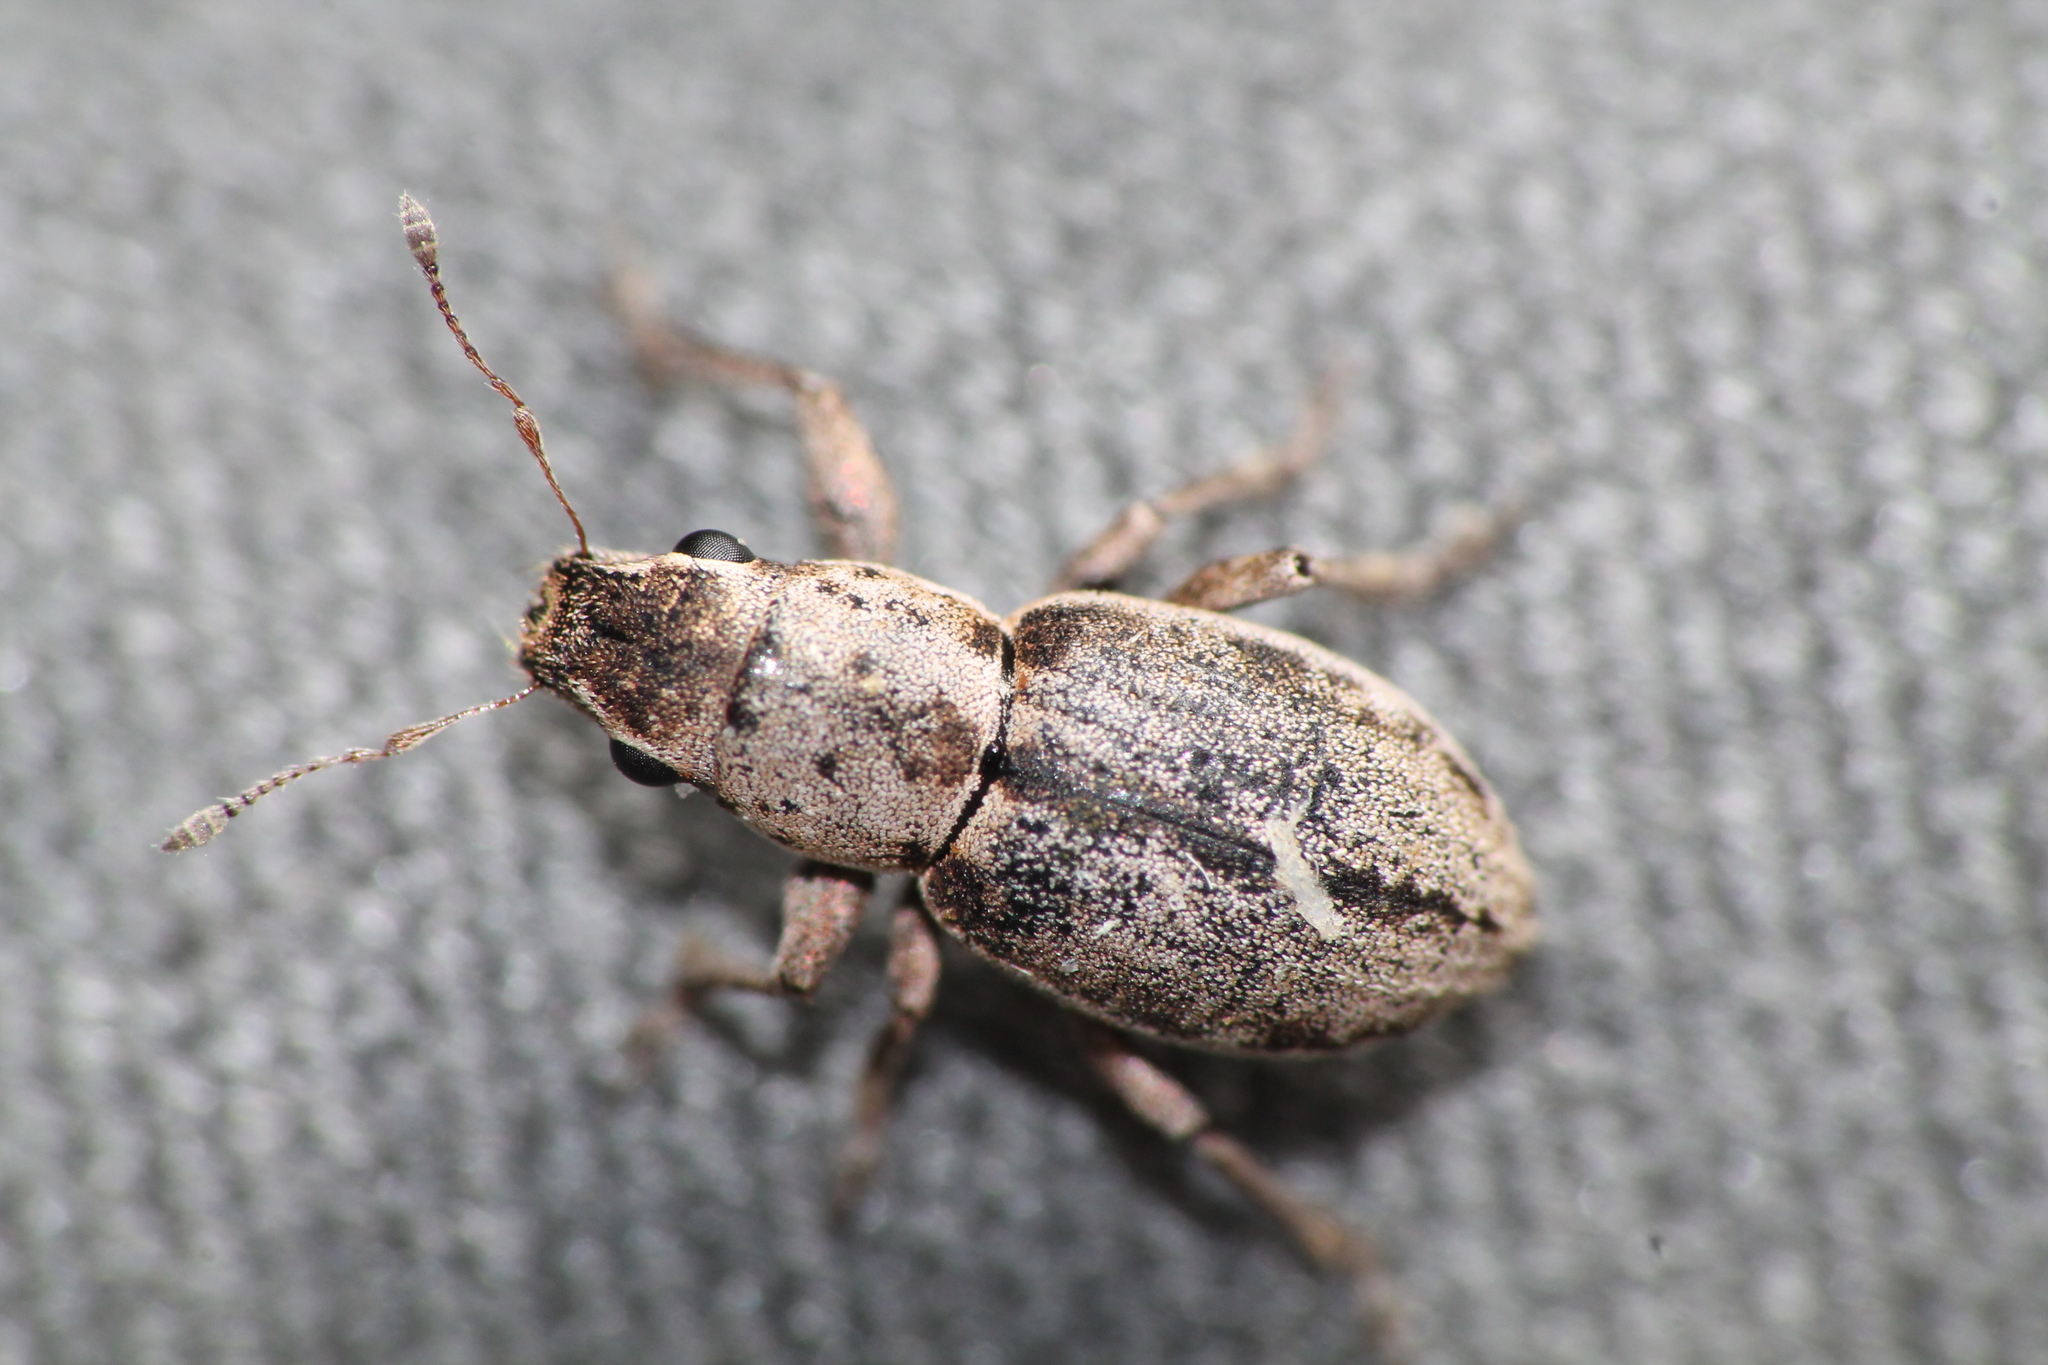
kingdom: Animalia
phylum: Arthropoda
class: Insecta
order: Coleoptera
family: Curculionidae
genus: Atrichonotus
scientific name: Atrichonotus taeniatulus
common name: Small lucerne weevil
